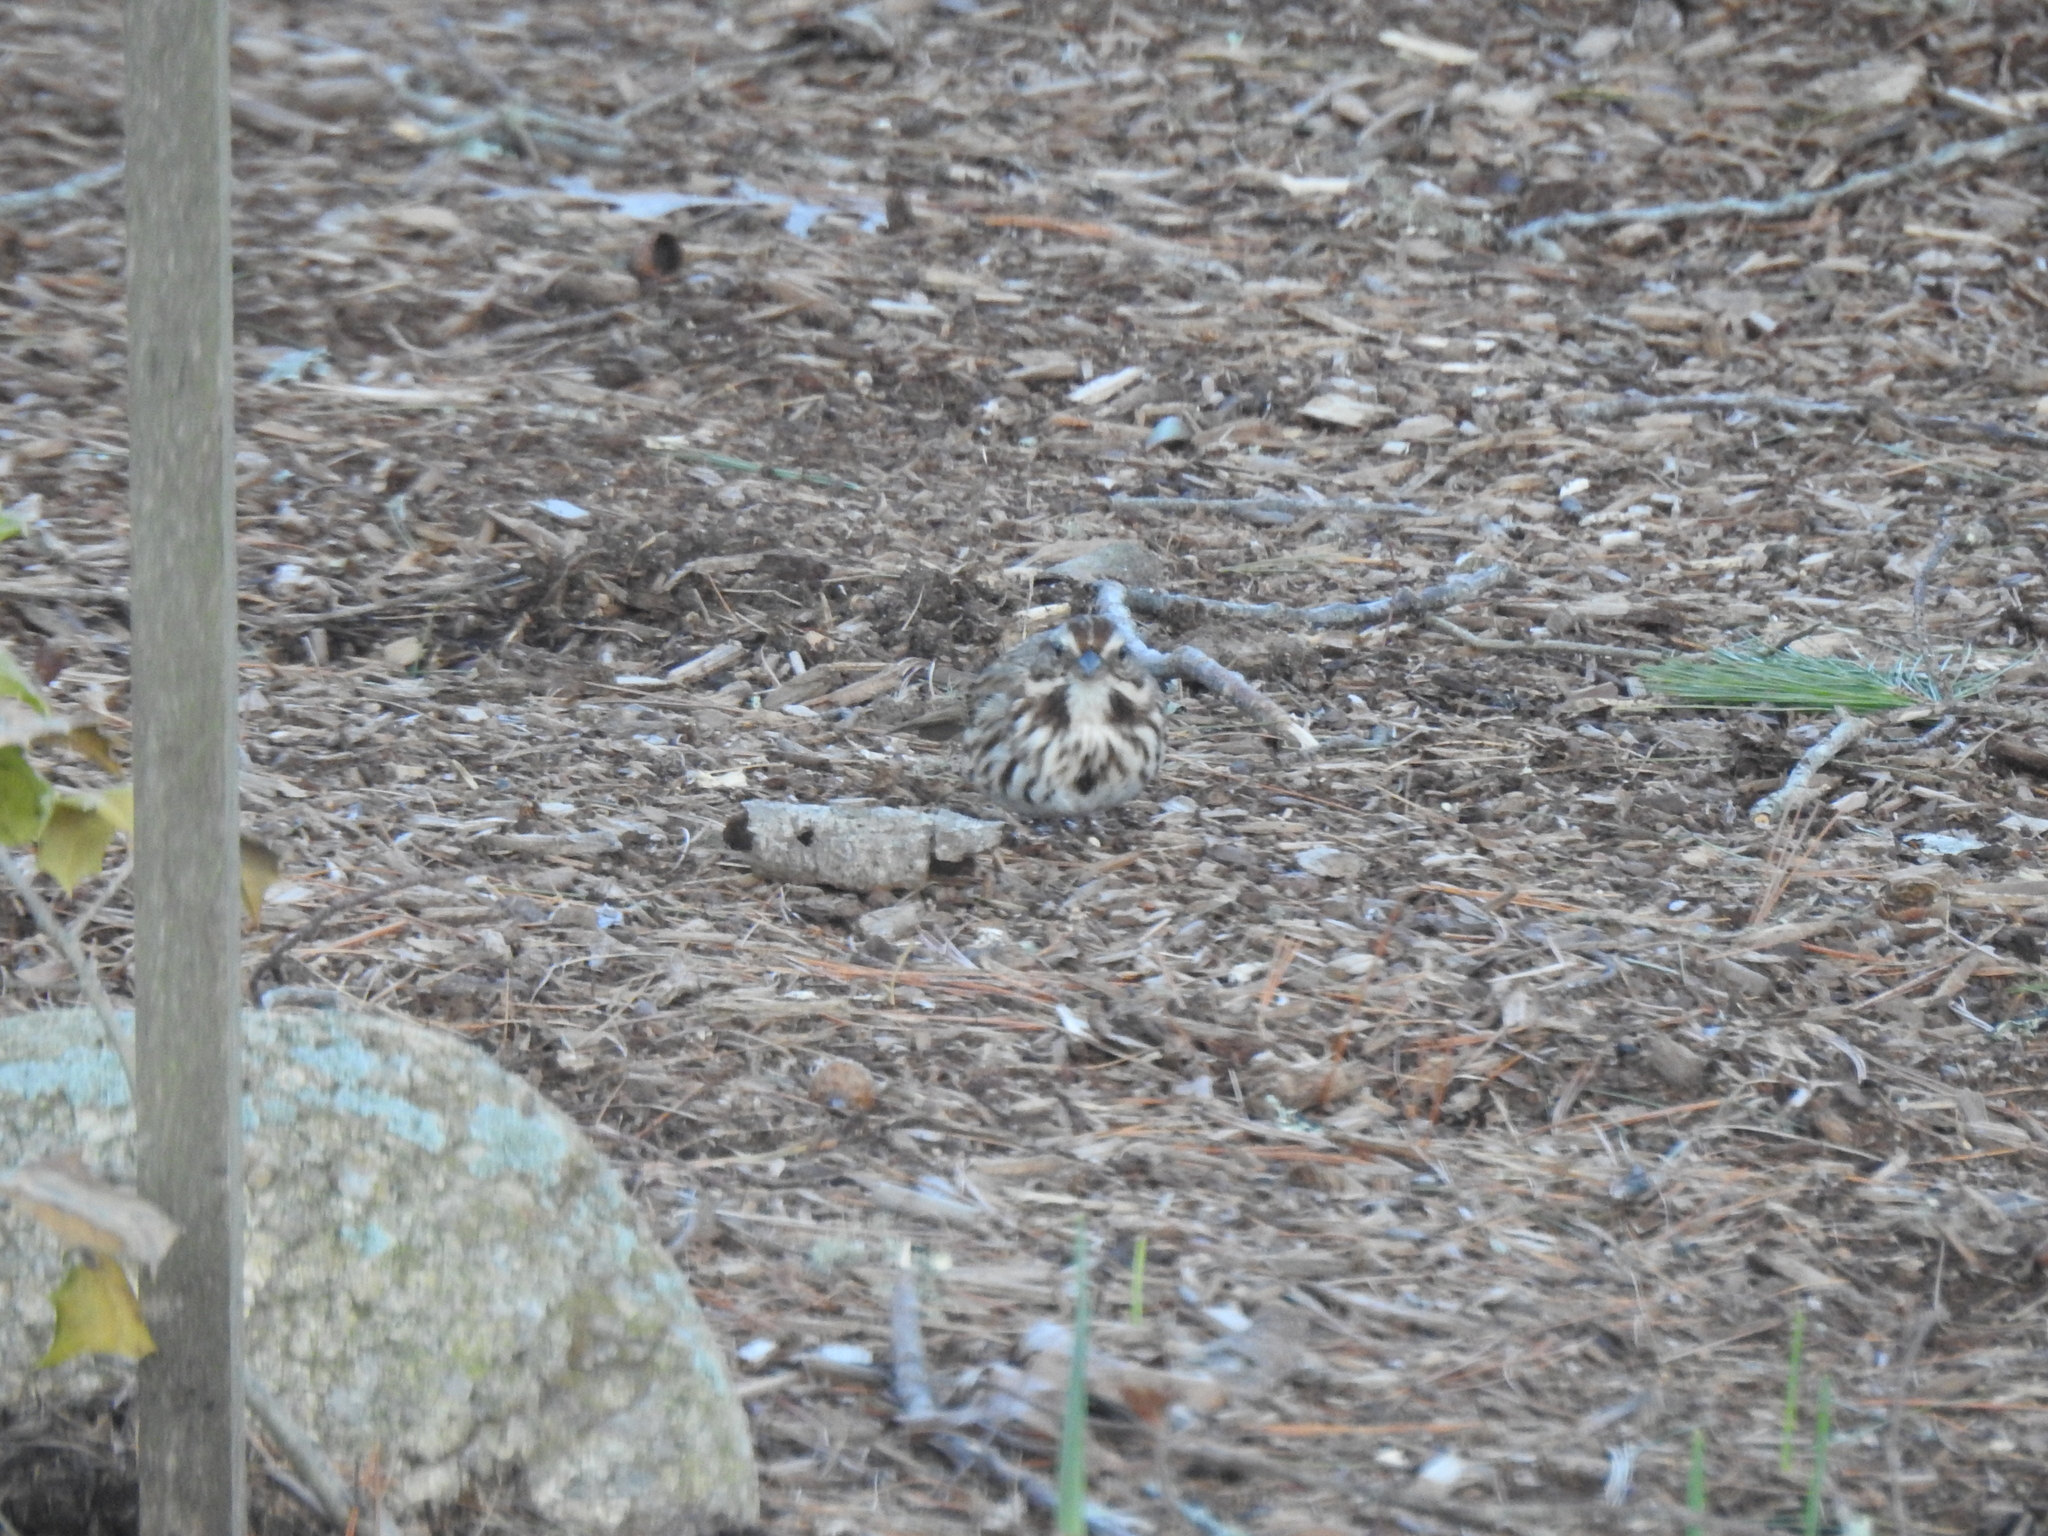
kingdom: Animalia
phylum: Chordata
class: Aves
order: Passeriformes
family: Passerellidae
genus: Melospiza
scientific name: Melospiza melodia
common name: Song sparrow
